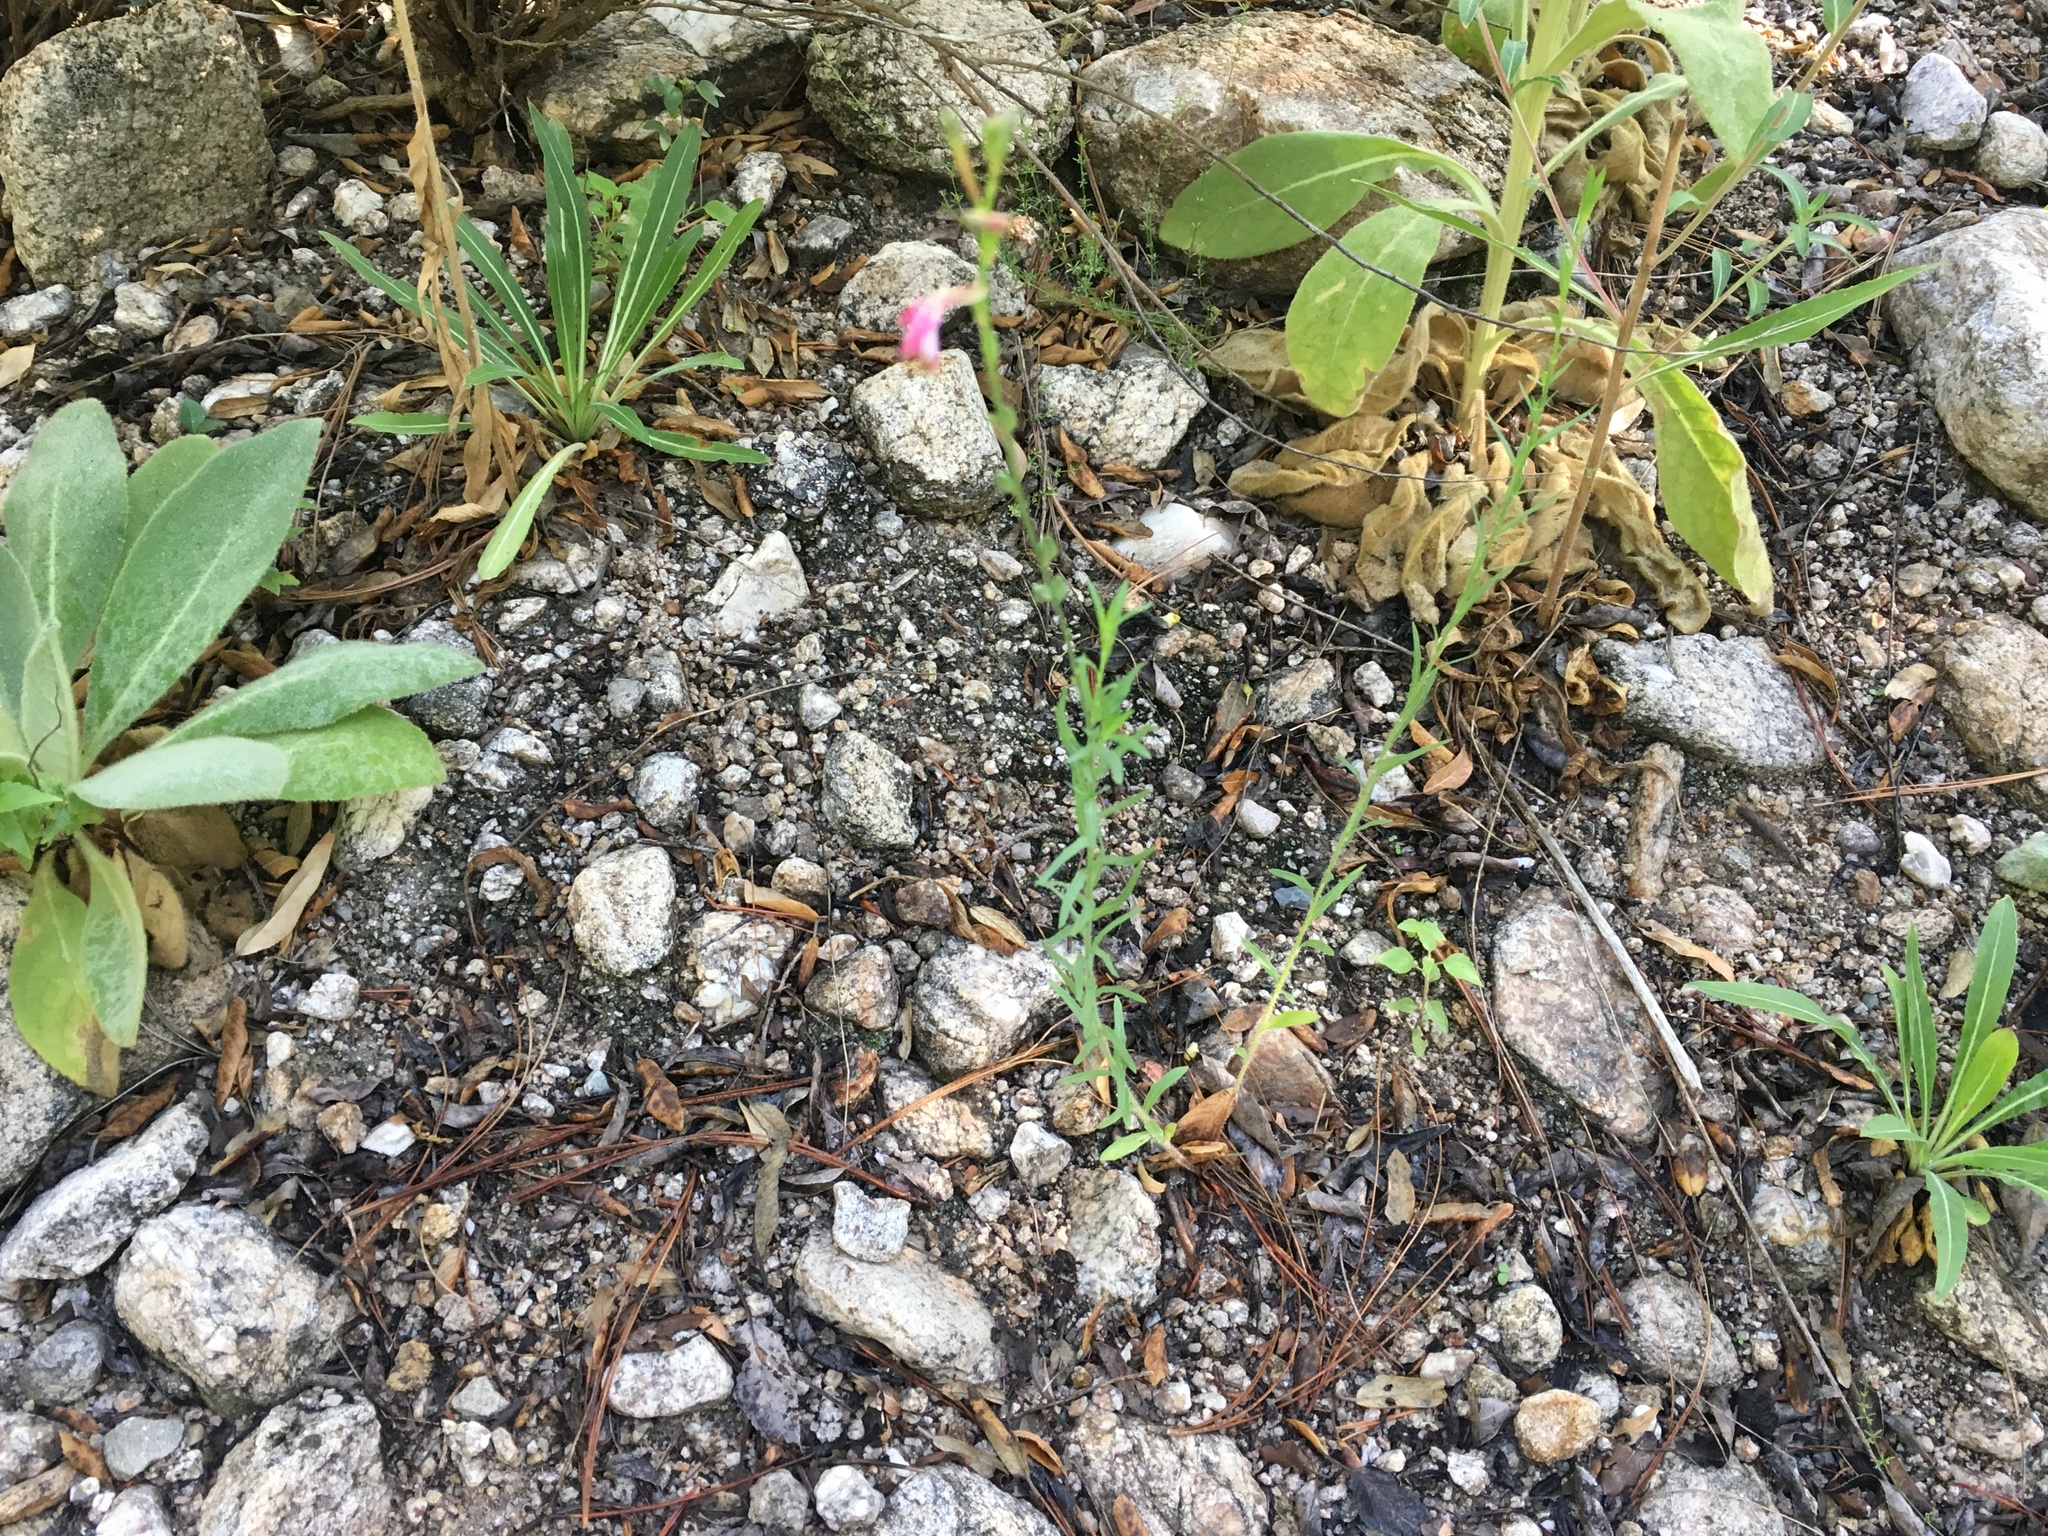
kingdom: Plantae
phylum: Tracheophyta
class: Magnoliopsida
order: Myrtales
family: Onagraceae
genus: Oenothera
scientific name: Oenothera podocarpa
